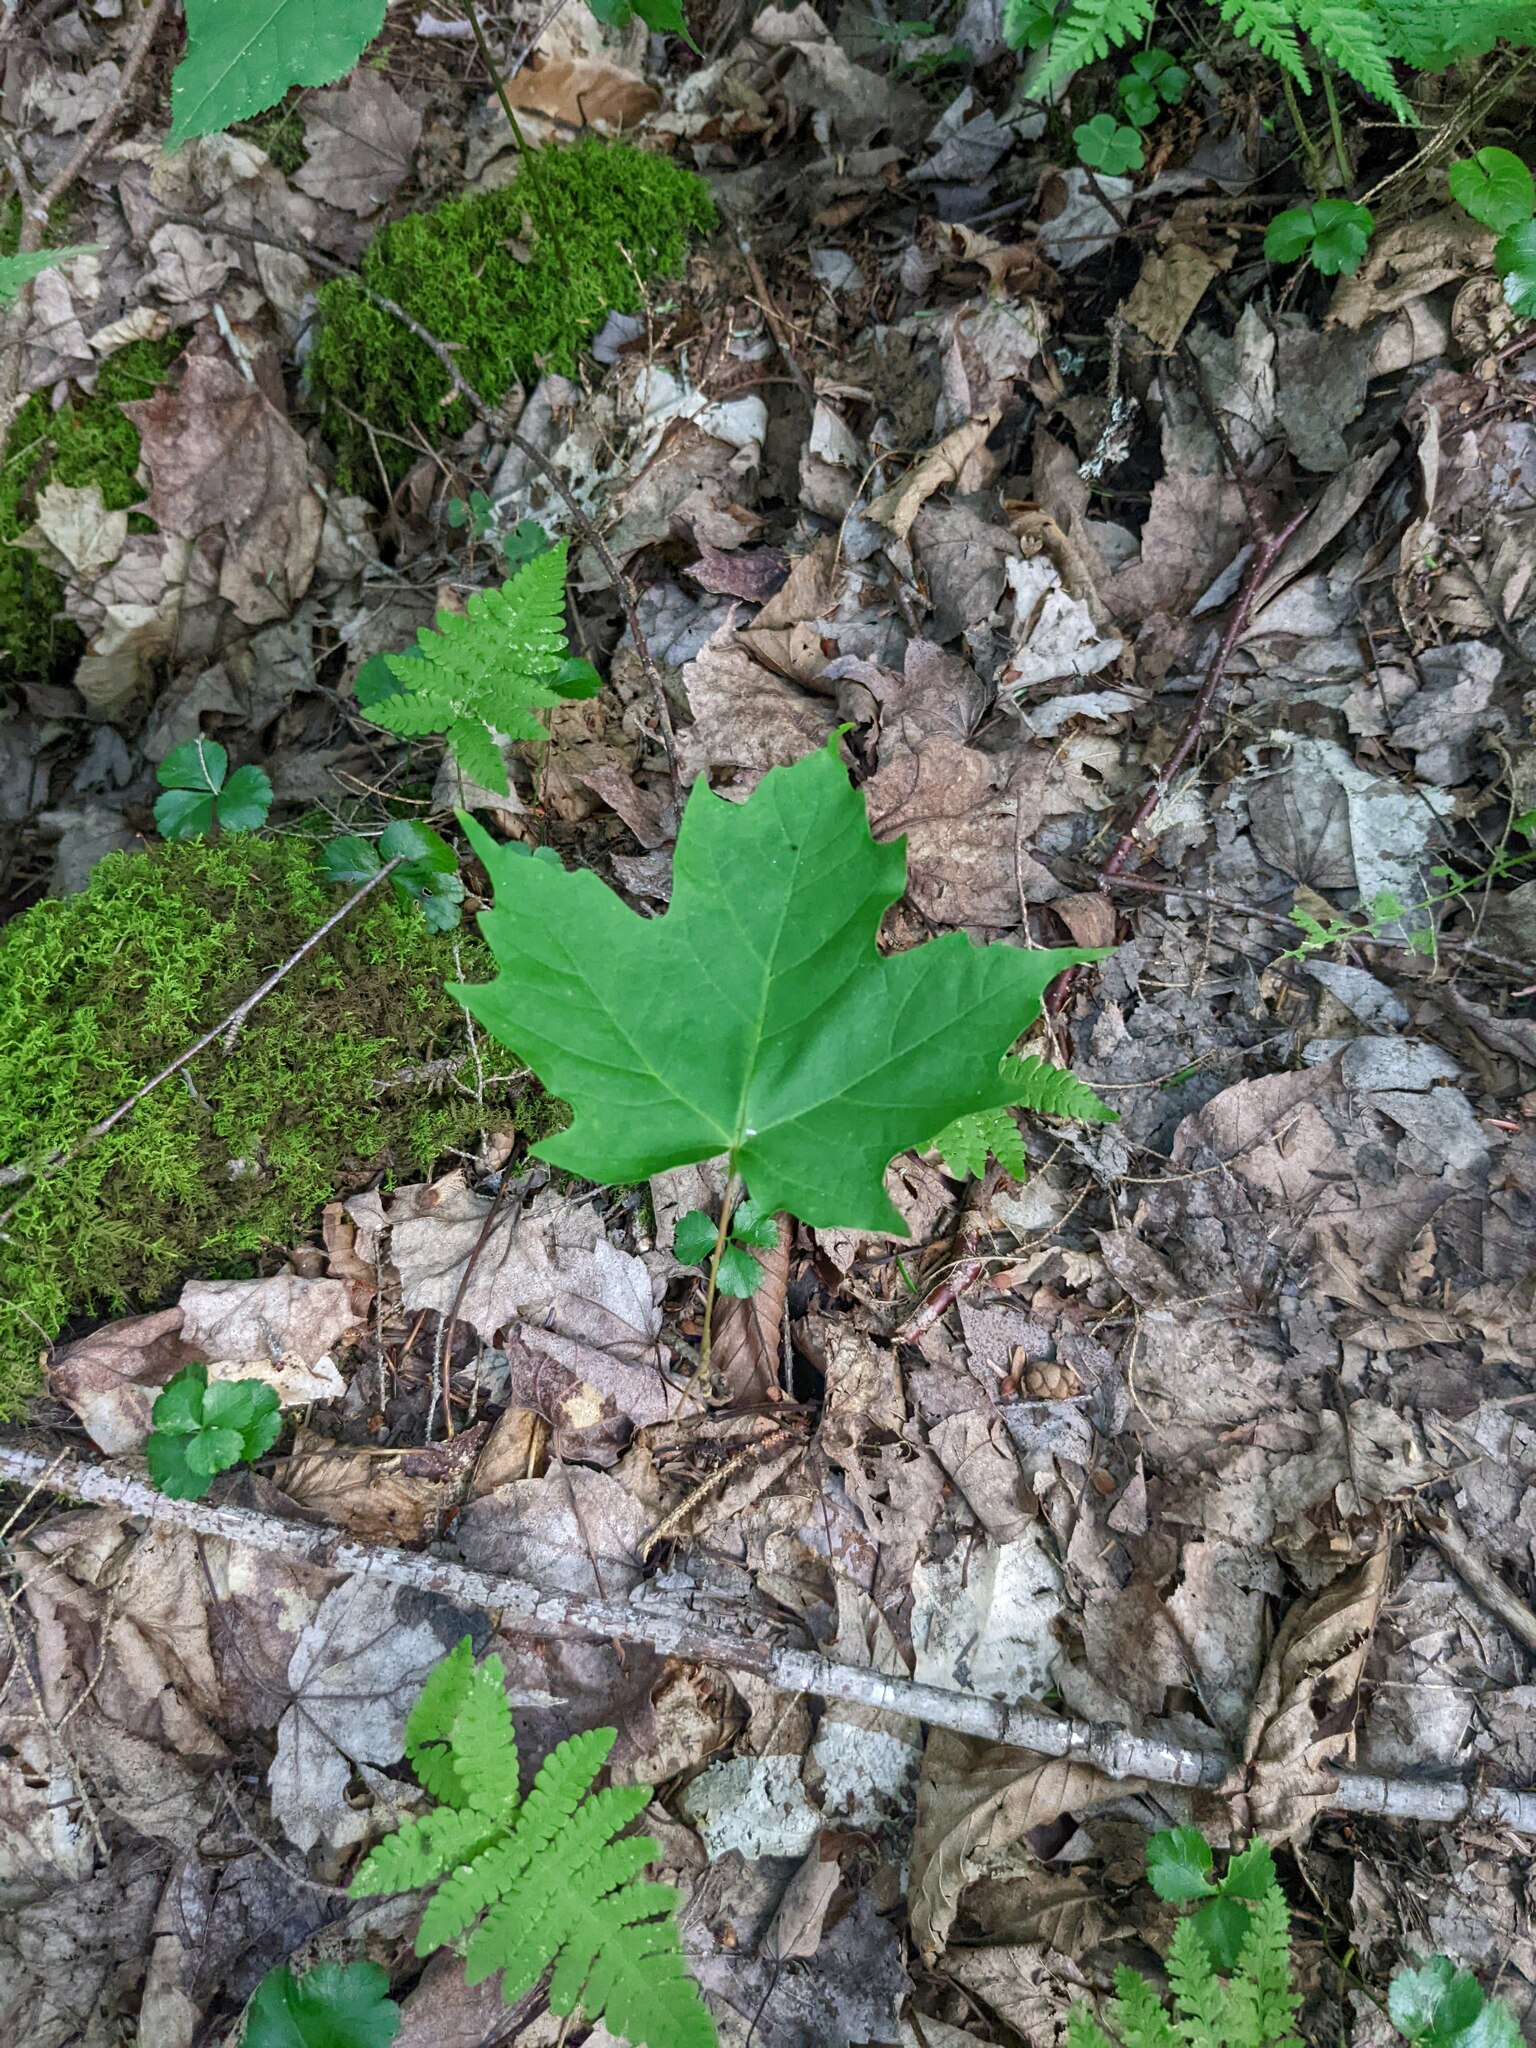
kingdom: Plantae
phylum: Tracheophyta
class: Magnoliopsida
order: Sapindales
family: Sapindaceae
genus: Acer
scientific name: Acer saccharum
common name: Sugar maple
